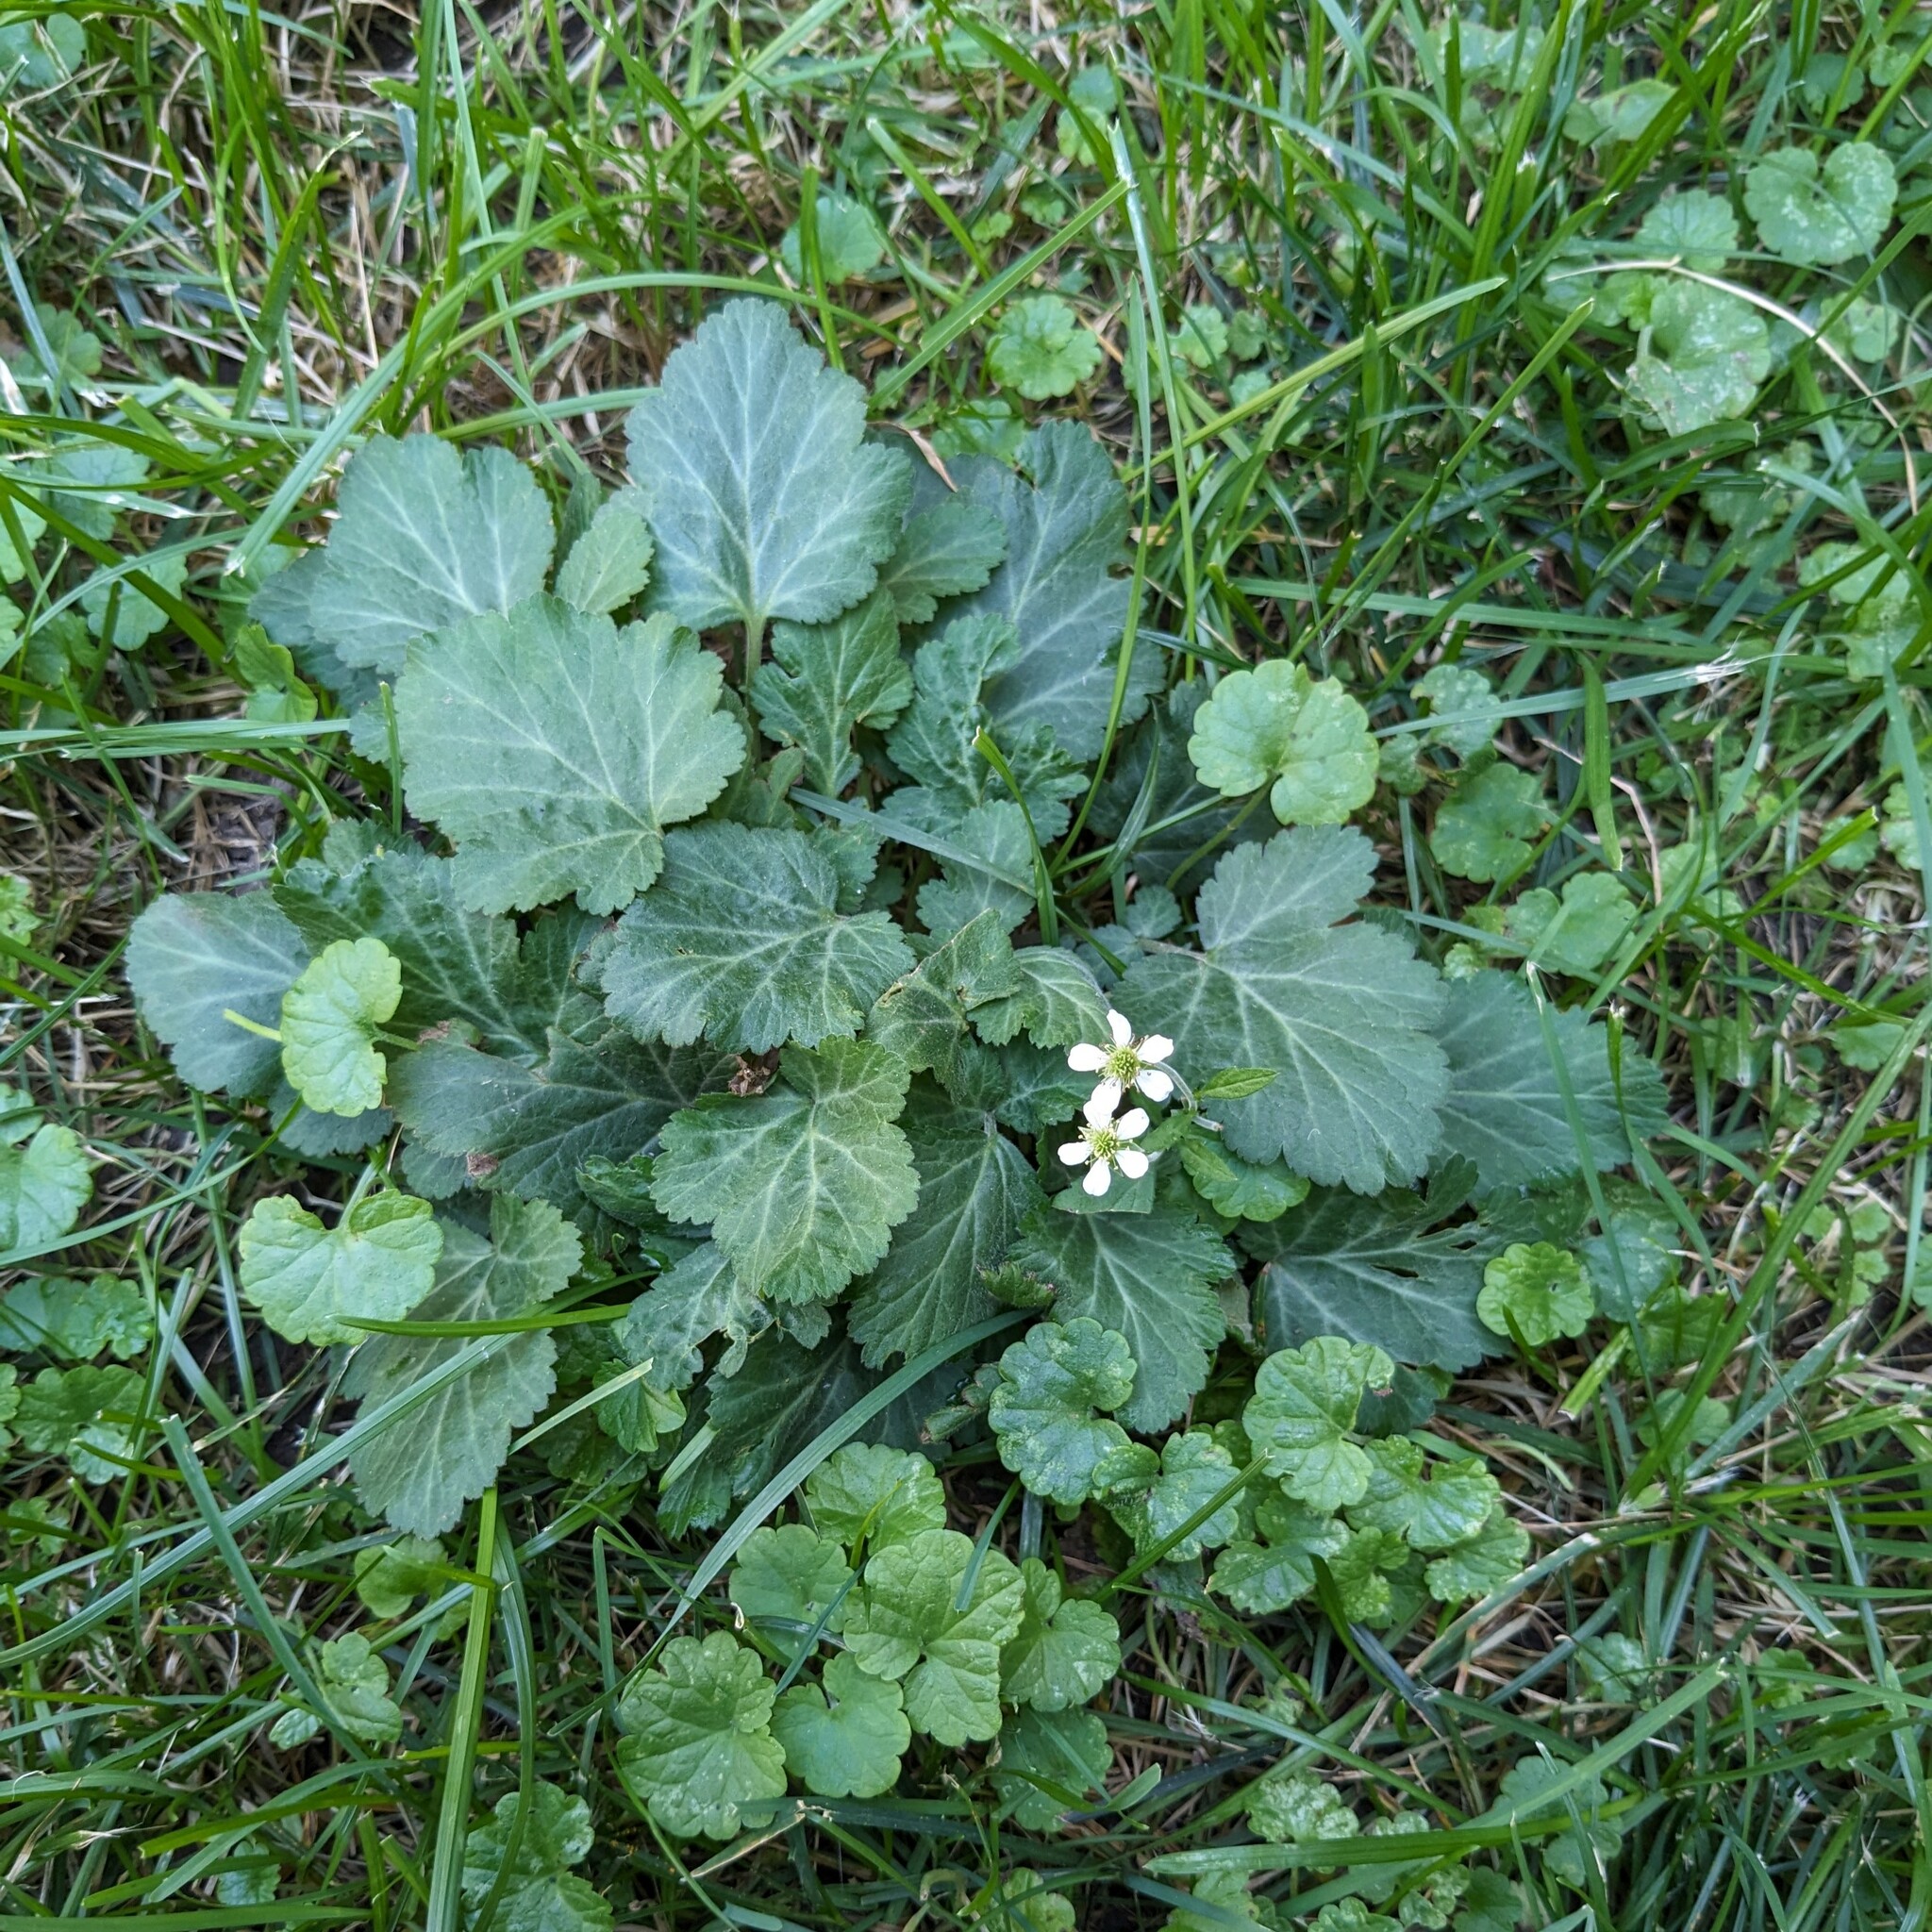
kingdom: Plantae
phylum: Tracheophyta
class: Magnoliopsida
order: Rosales
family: Rosaceae
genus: Geum
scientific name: Geum canadense
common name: White avens
